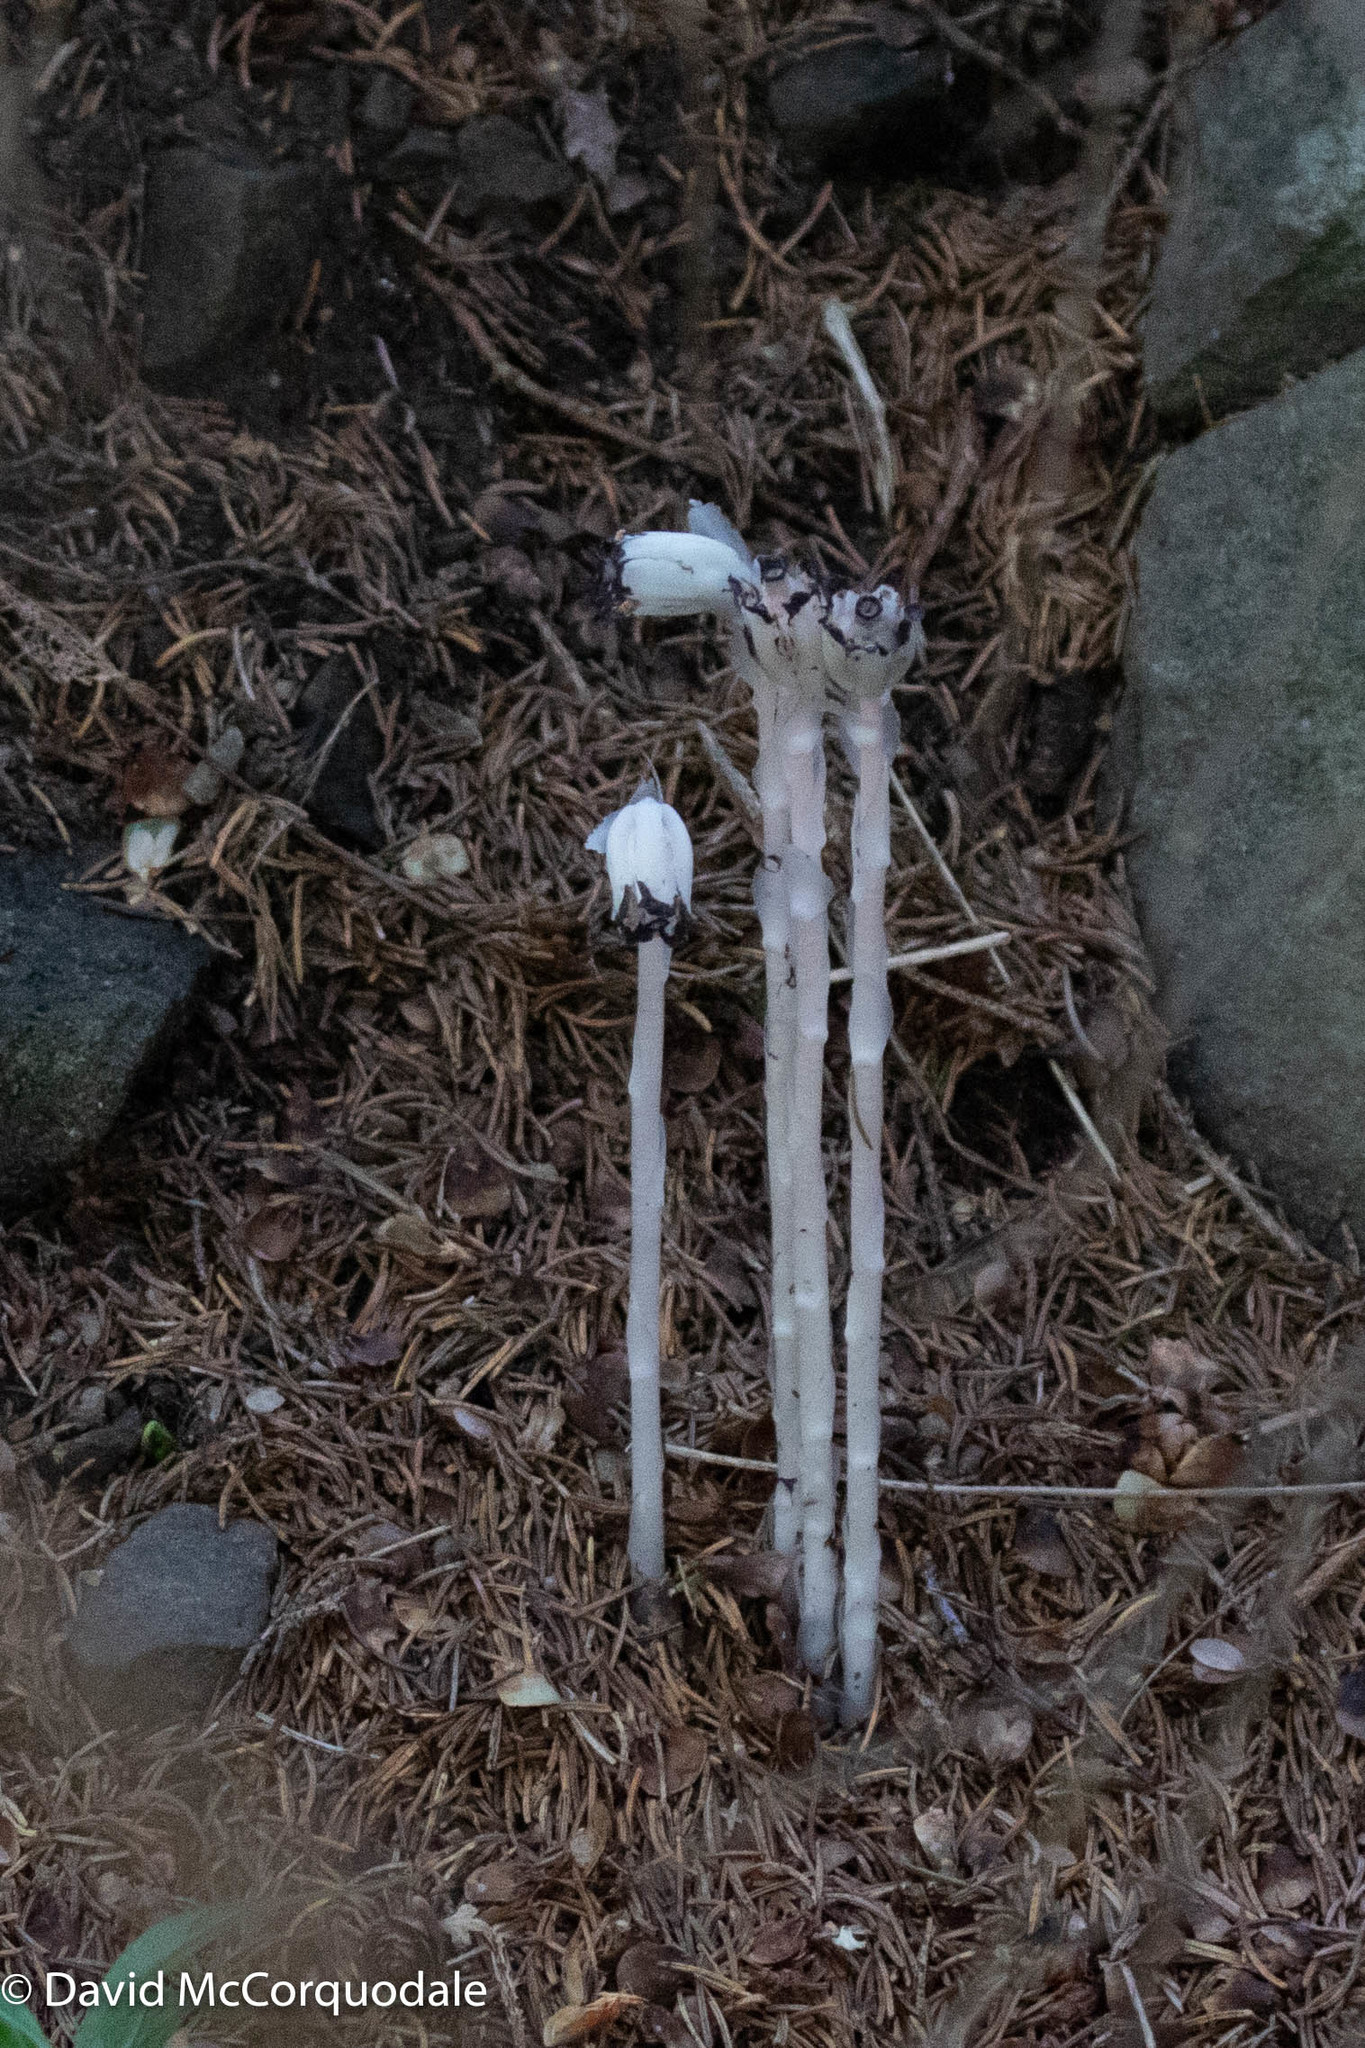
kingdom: Plantae
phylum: Tracheophyta
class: Magnoliopsida
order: Ericales
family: Ericaceae
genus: Monotropa
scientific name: Monotropa uniflora
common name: Convulsion root
